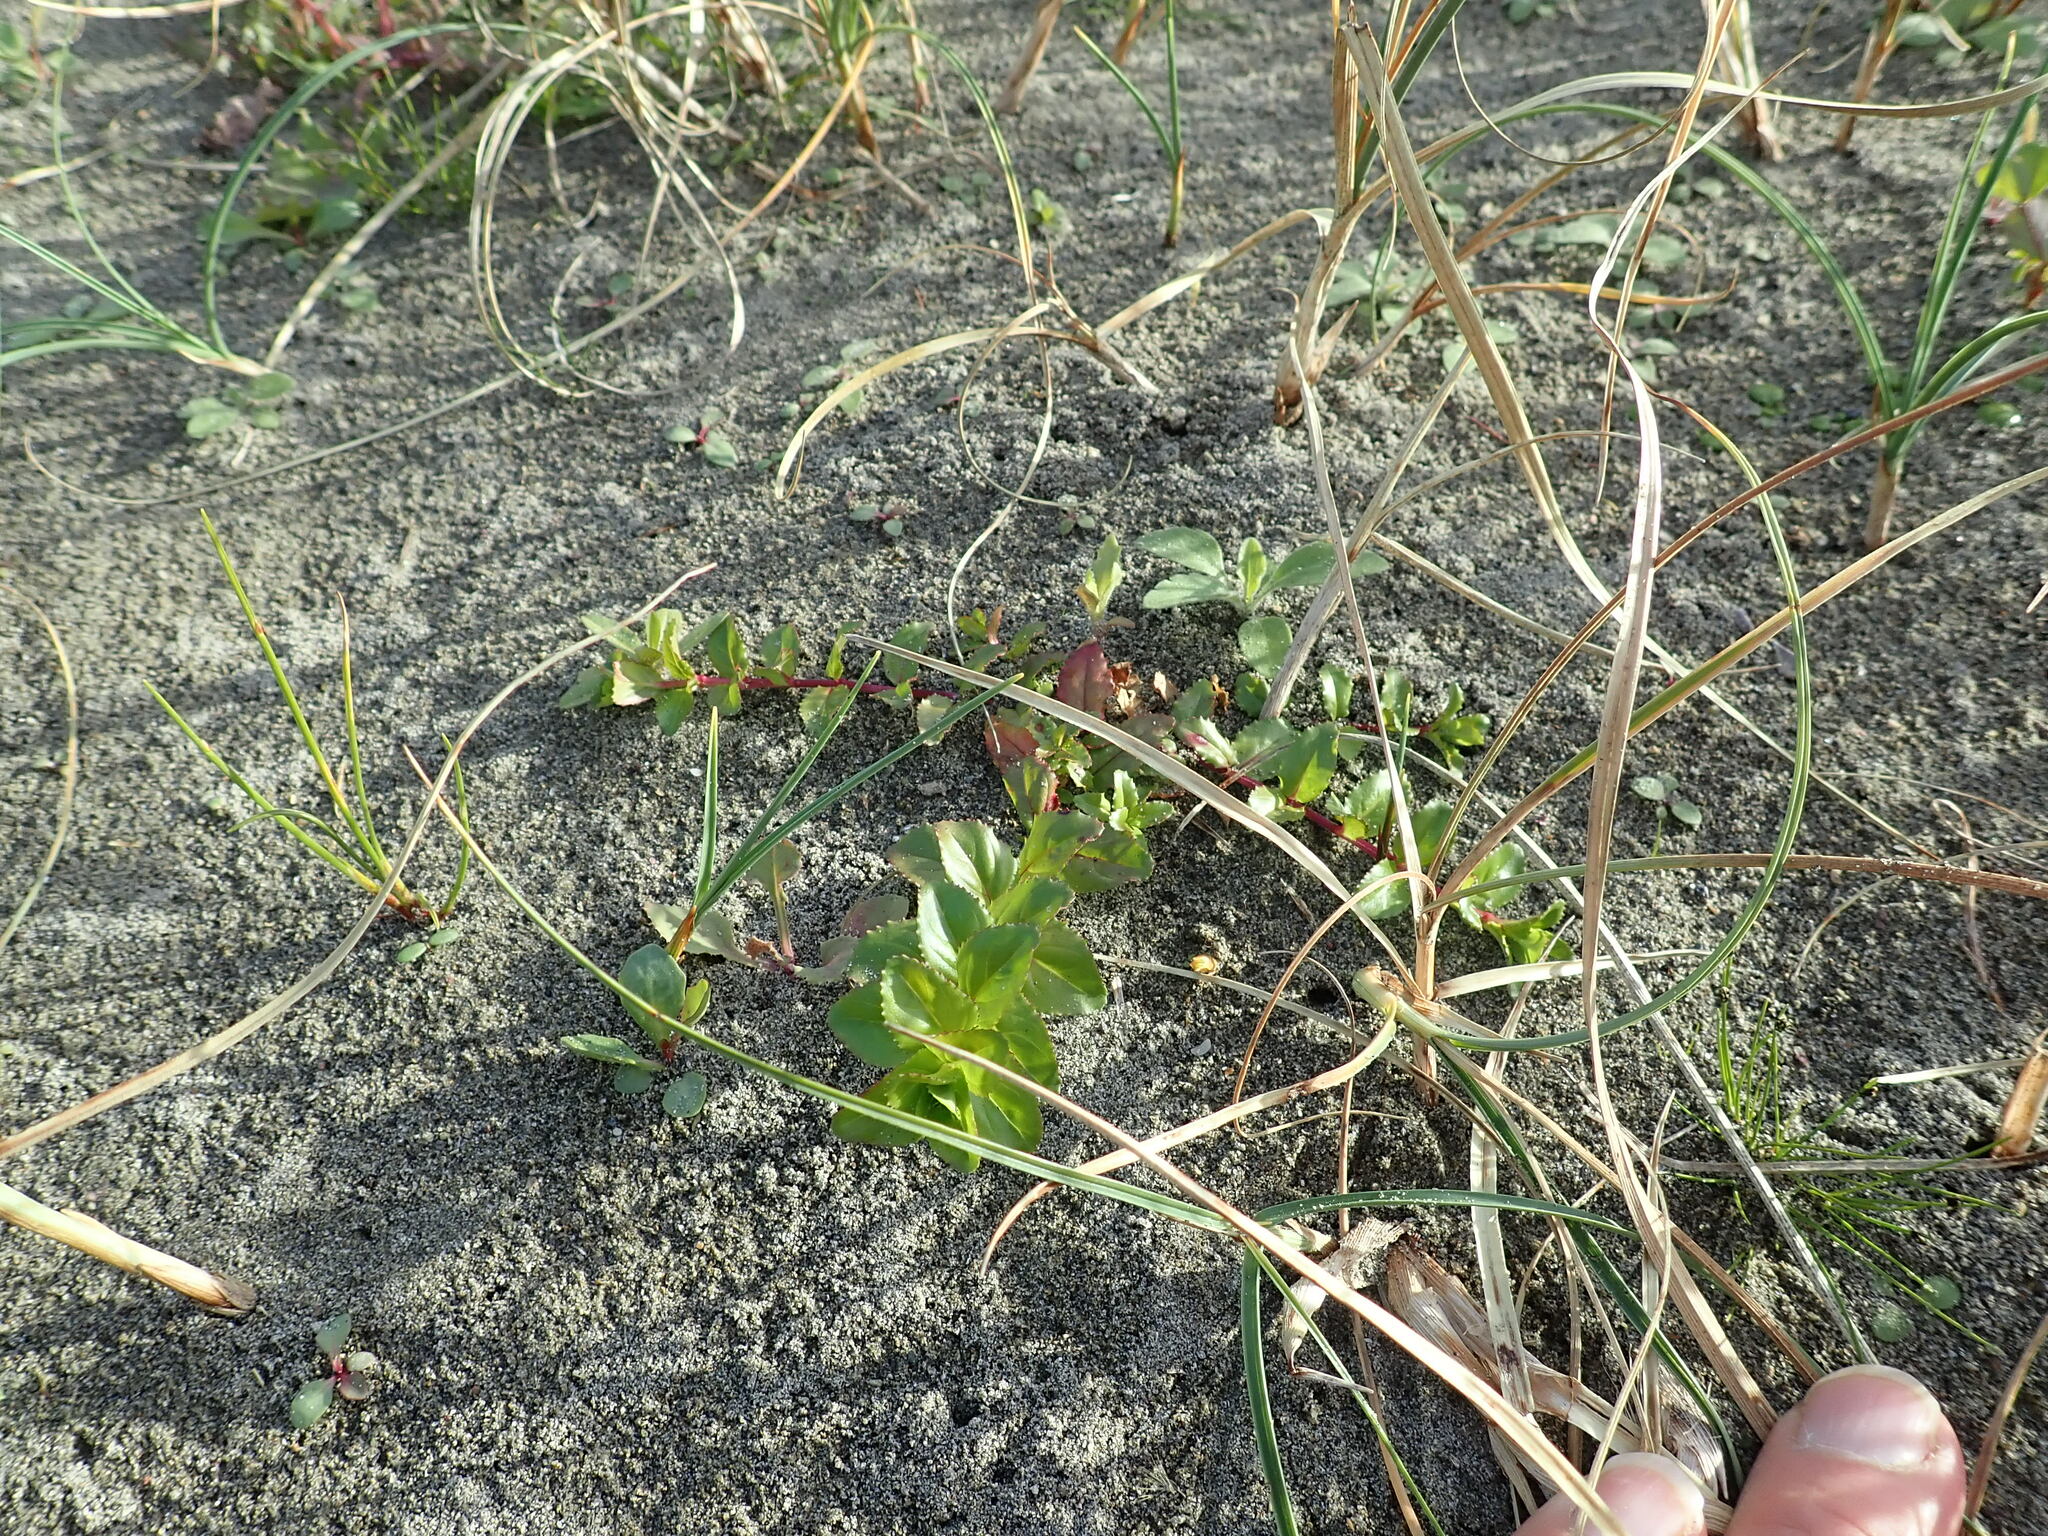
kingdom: Plantae
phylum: Tracheophyta
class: Magnoliopsida
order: Myrtales
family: Onagraceae
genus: Epilobium
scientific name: Epilobium billardiereanum
